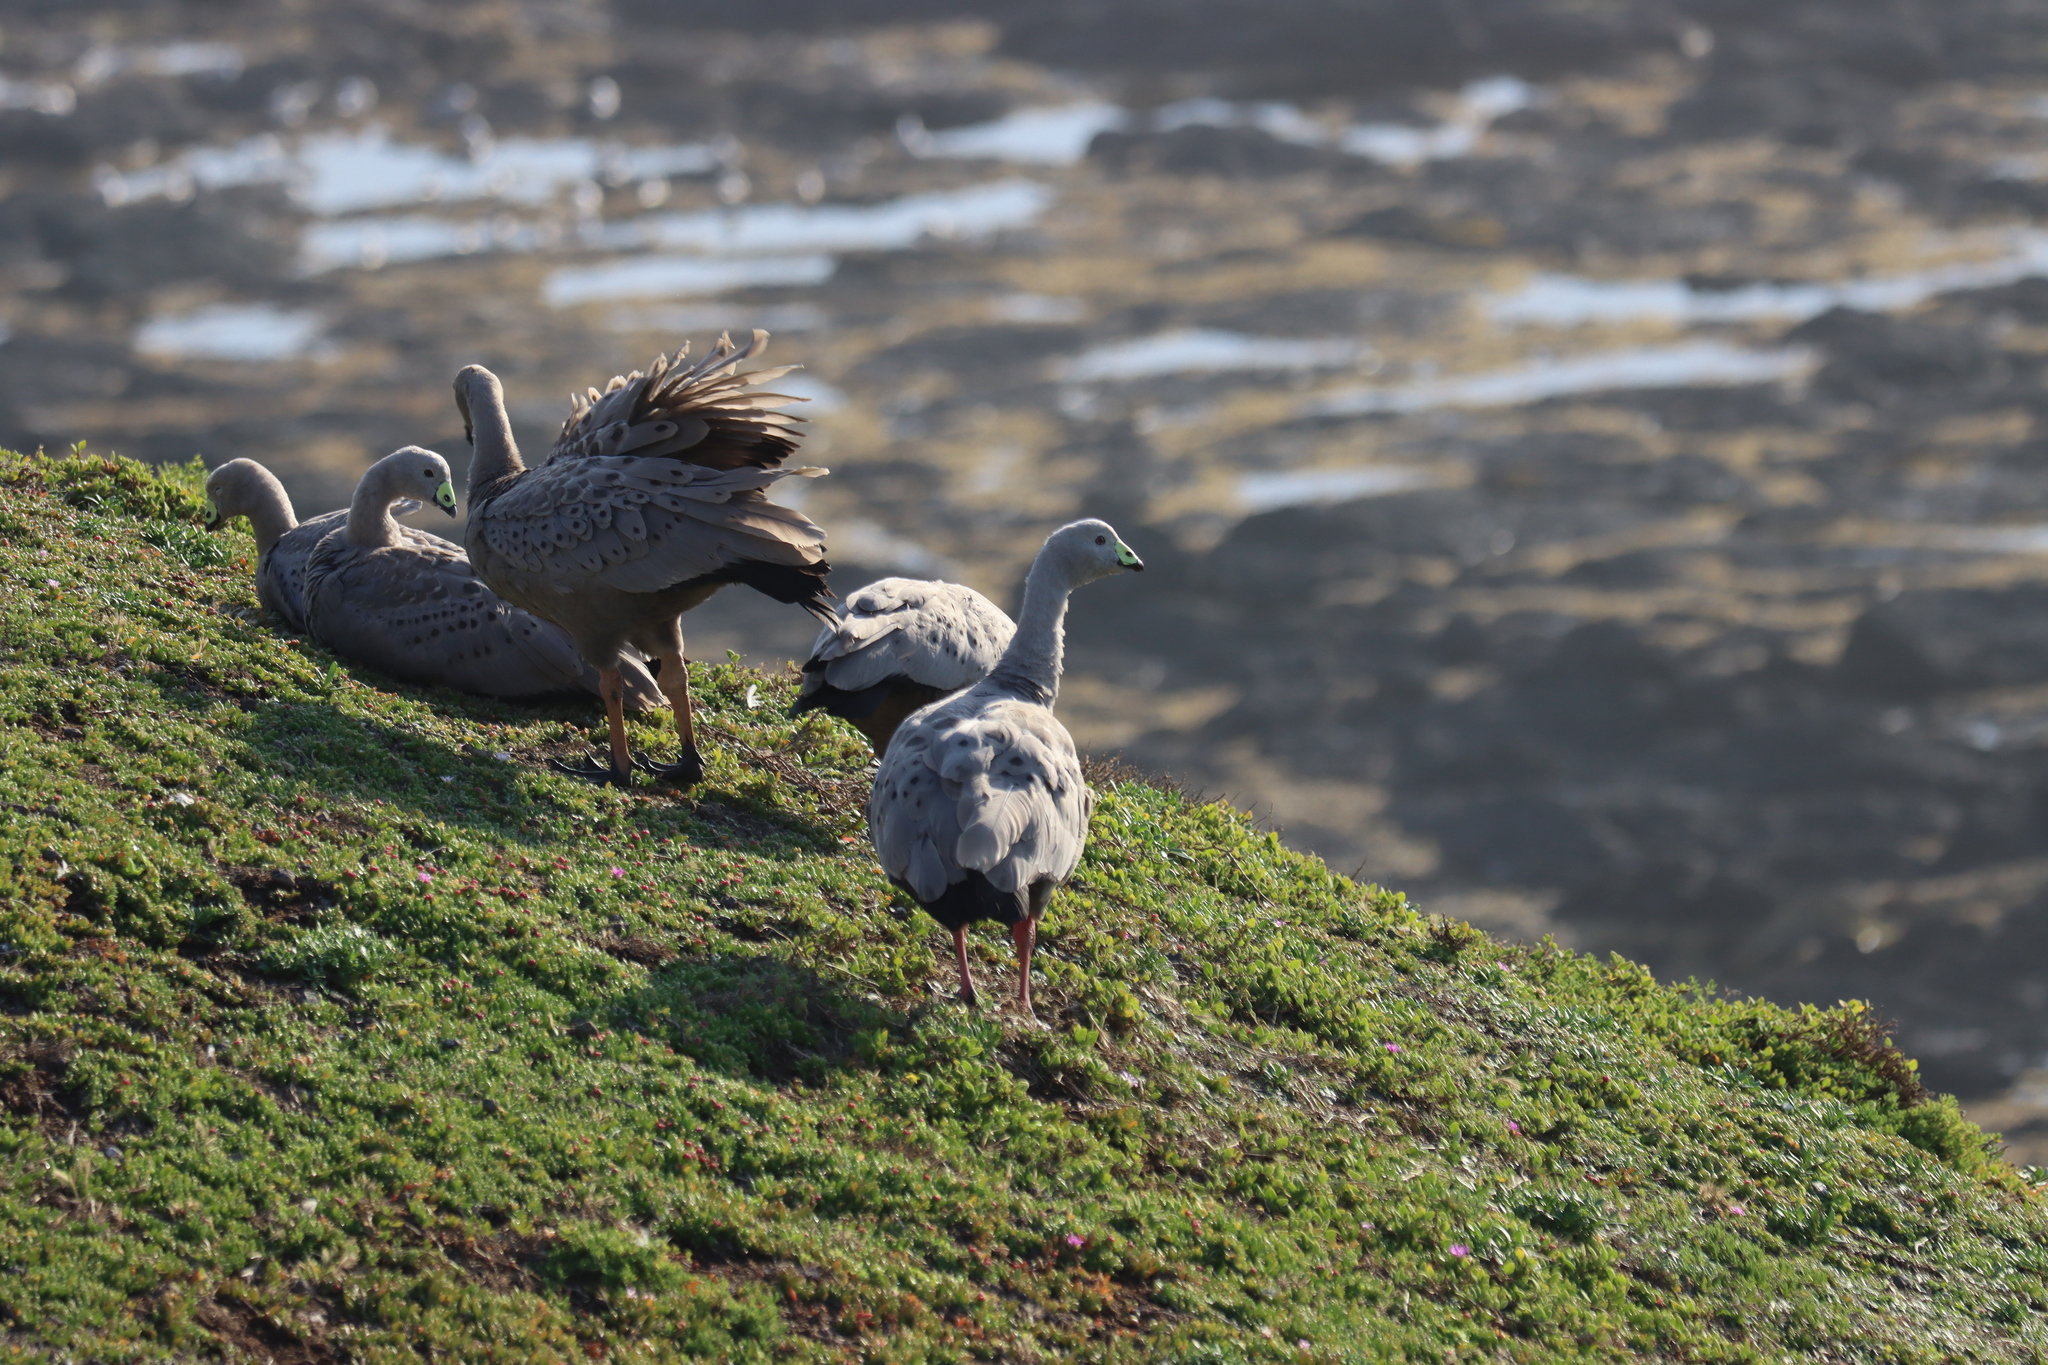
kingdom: Animalia
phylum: Chordata
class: Aves
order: Anseriformes
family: Anatidae
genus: Cereopsis
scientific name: Cereopsis novaehollandiae
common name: Cape barren goose
